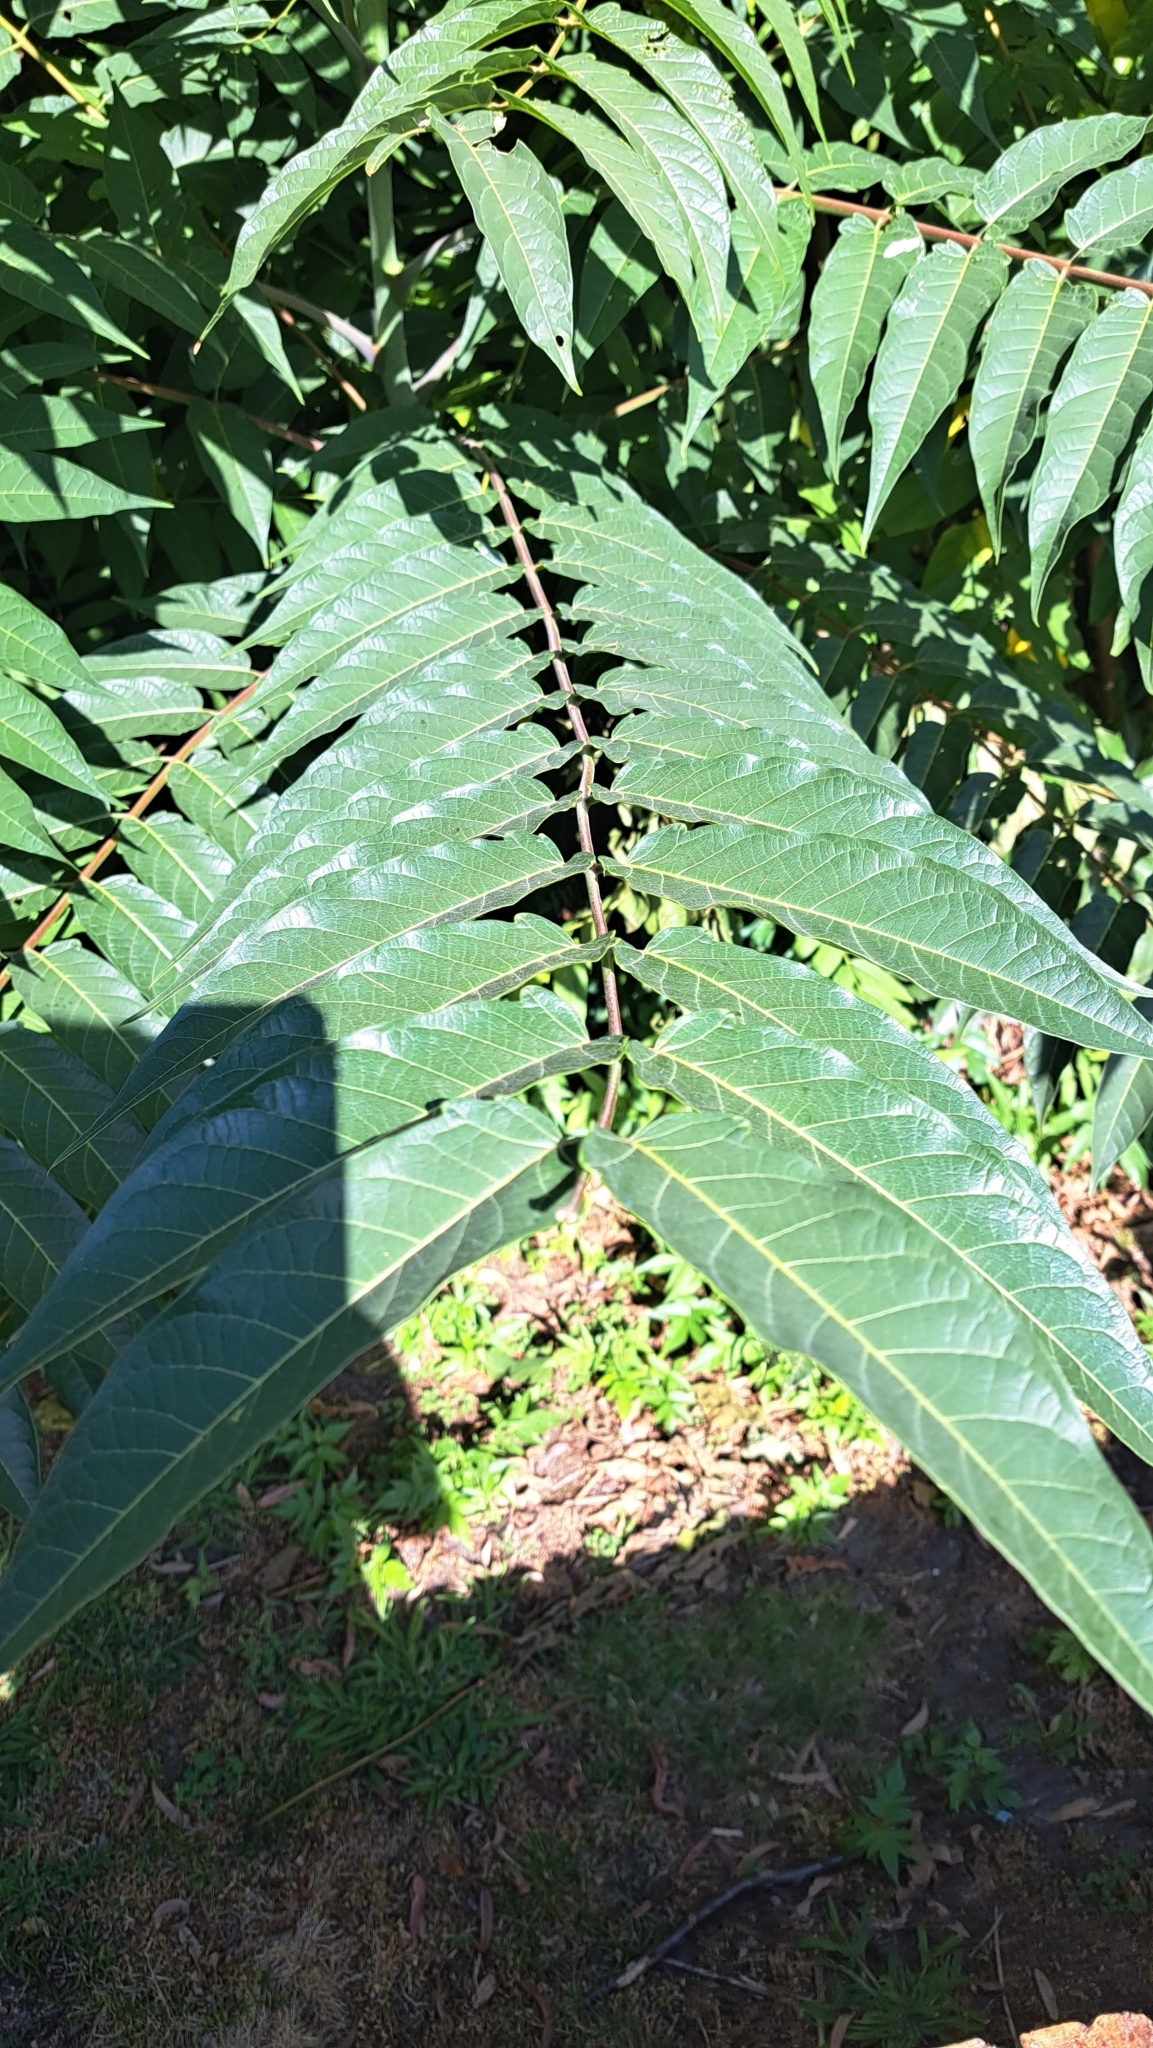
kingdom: Plantae
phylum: Tracheophyta
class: Magnoliopsida
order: Sapindales
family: Simaroubaceae
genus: Ailanthus
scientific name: Ailanthus altissima
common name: Tree-of-heaven
